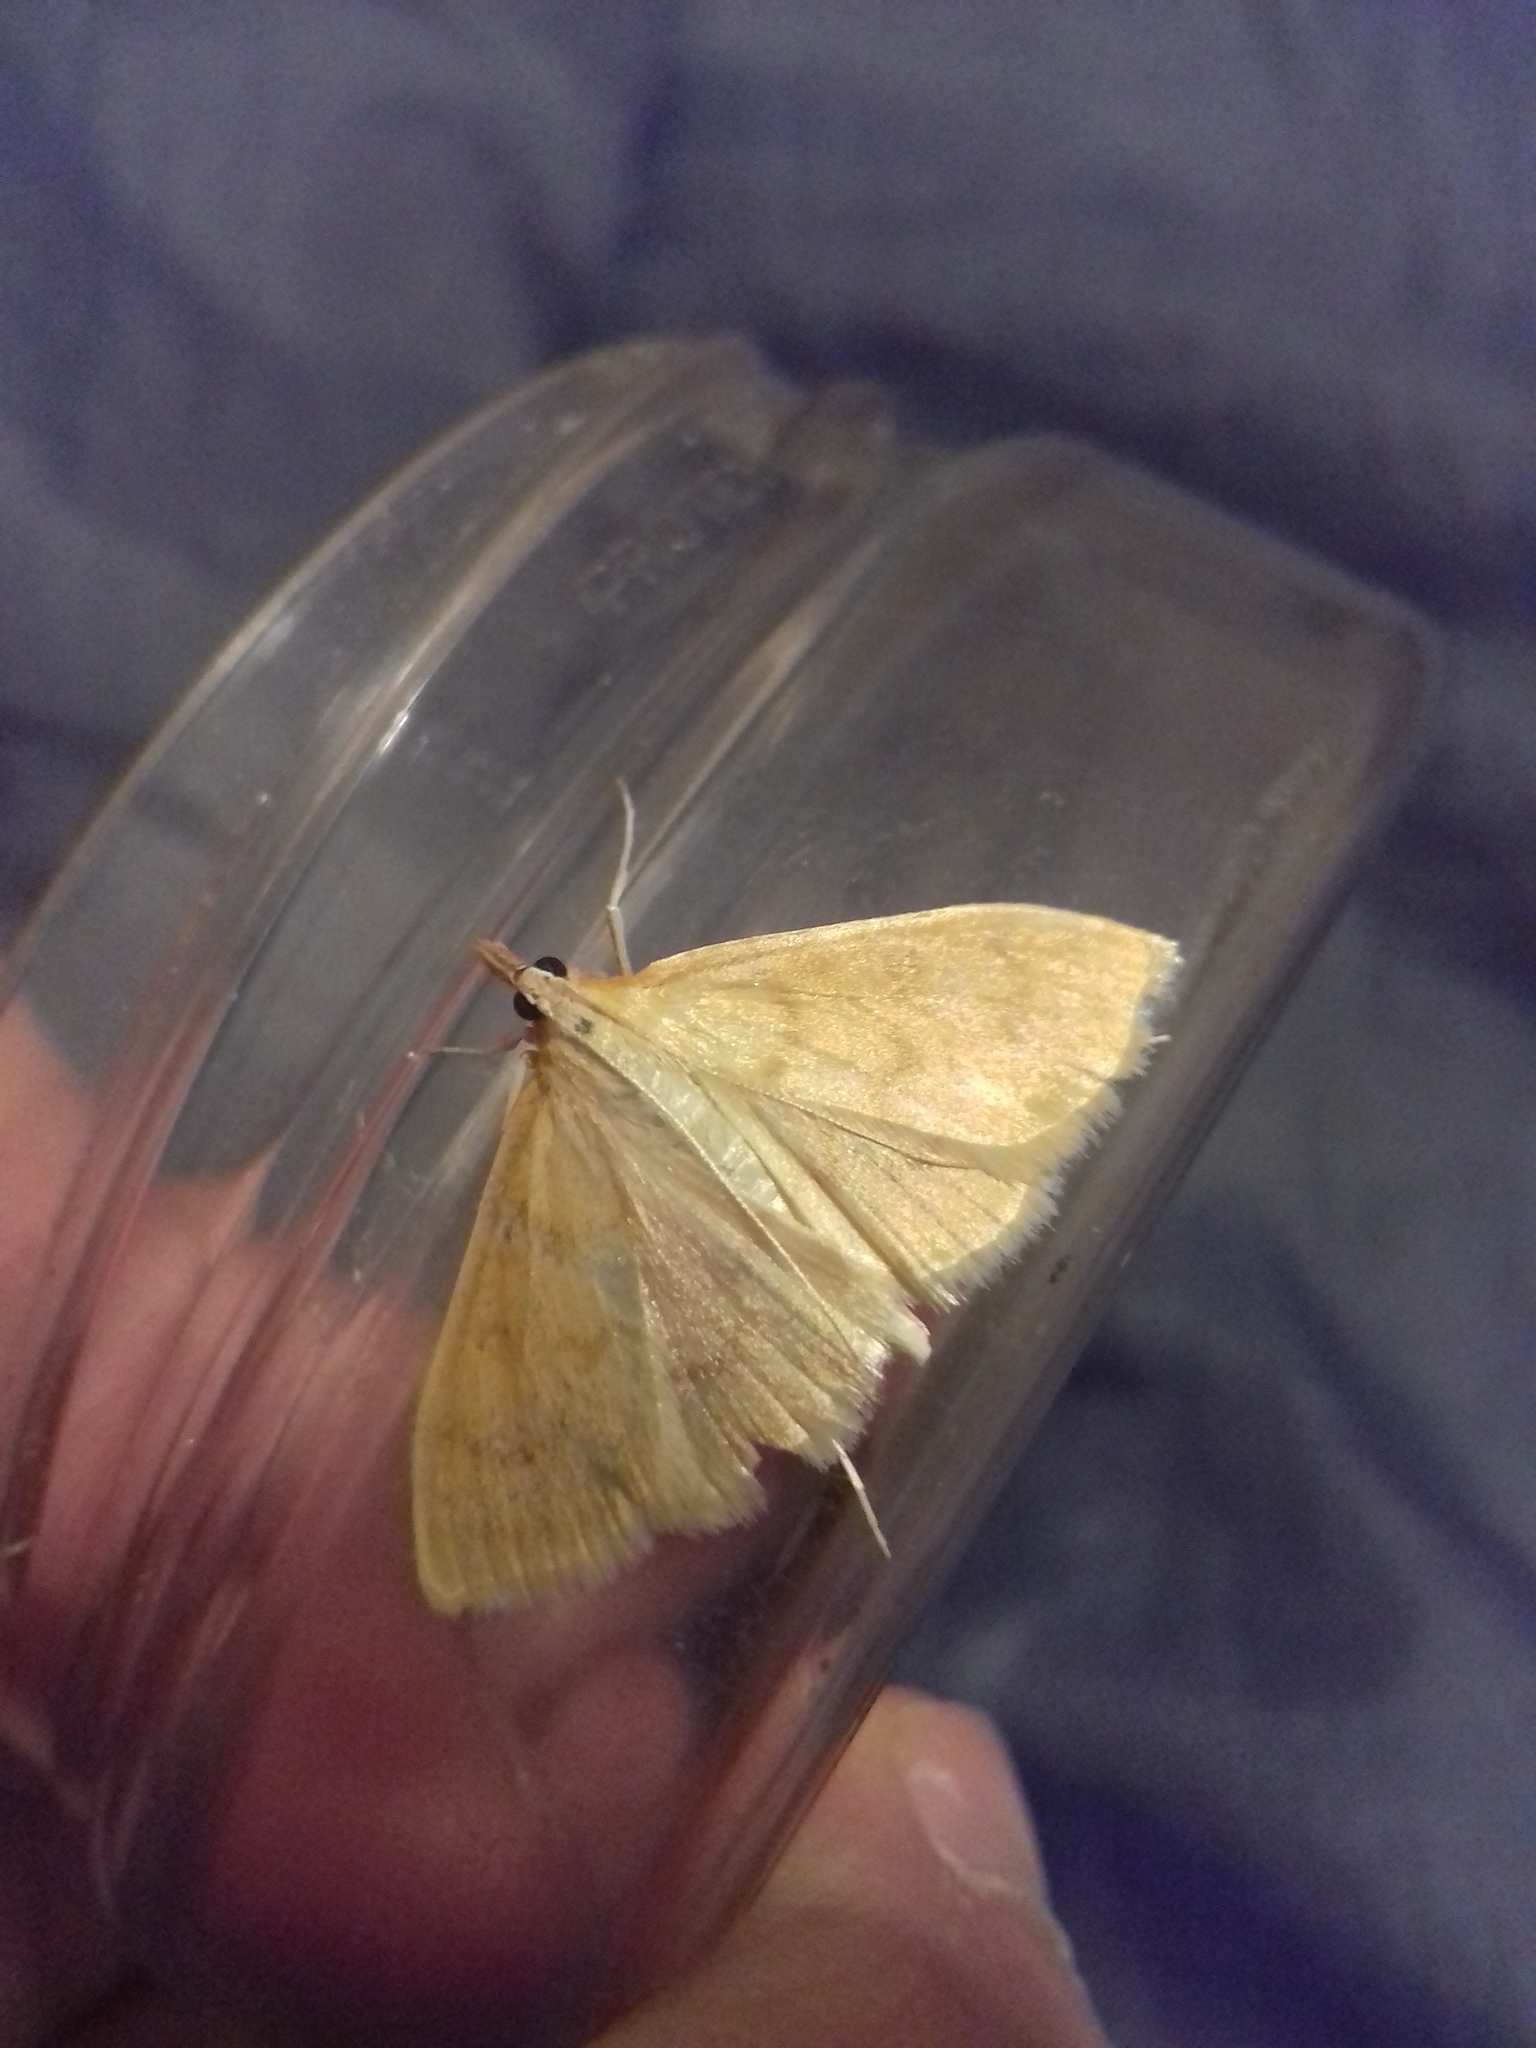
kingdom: Animalia
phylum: Arthropoda
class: Insecta
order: Lepidoptera
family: Crambidae
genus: Paratalanta
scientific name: Paratalanta pandalis
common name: Bordered pearl
